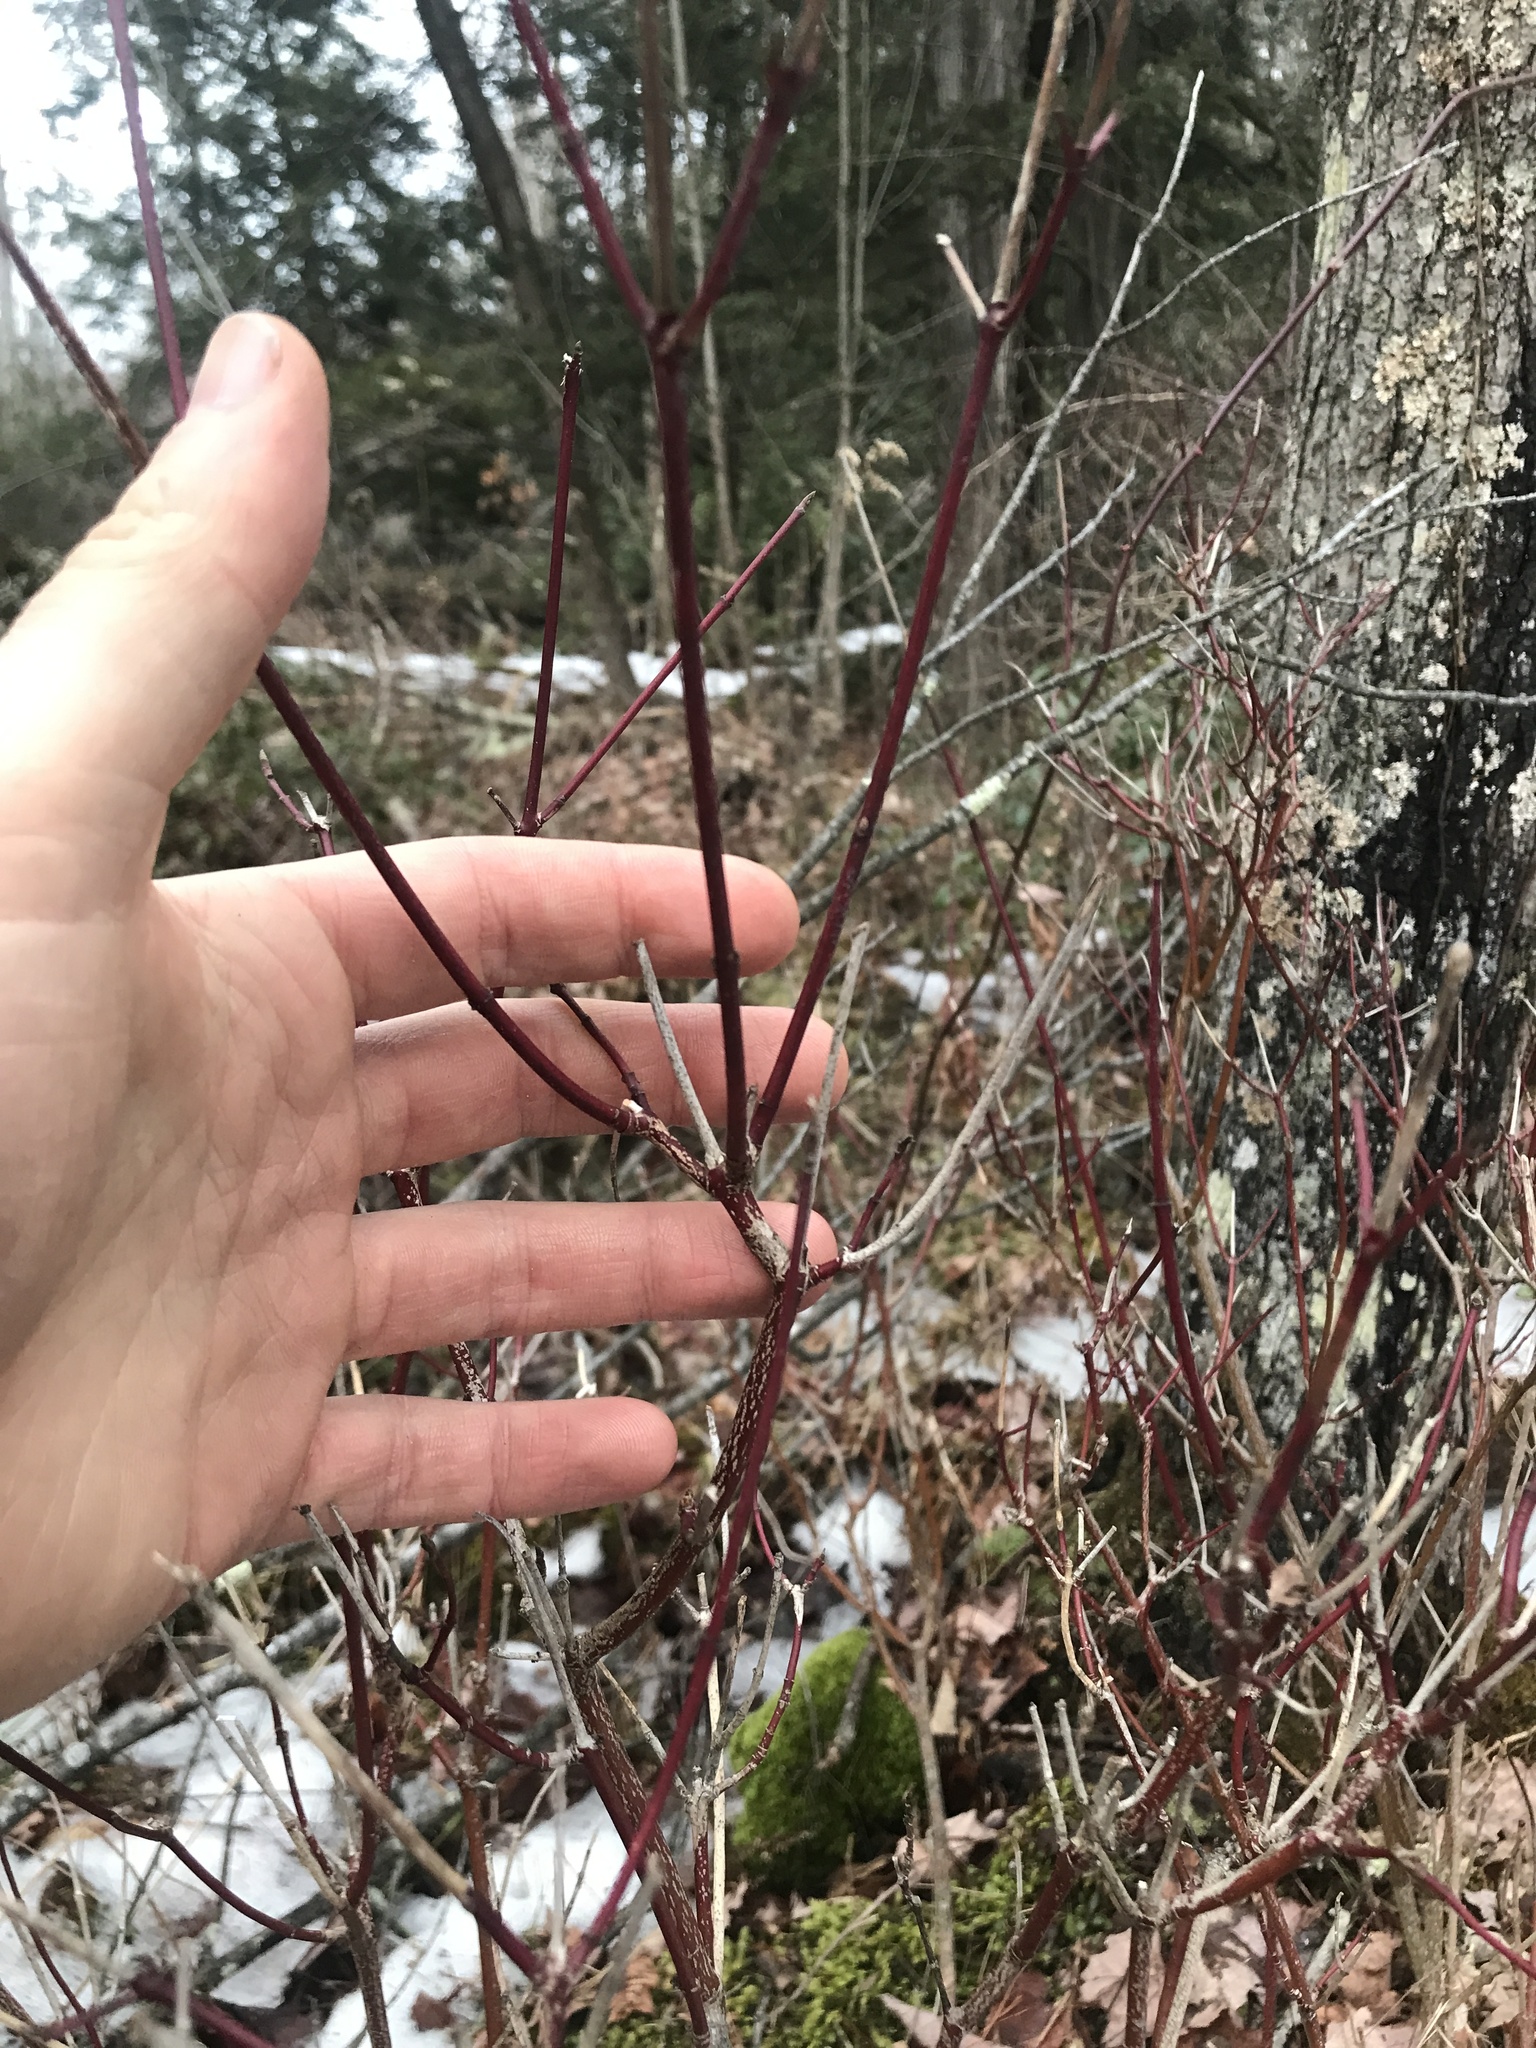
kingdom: Plantae
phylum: Tracheophyta
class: Magnoliopsida
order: Cornales
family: Cornaceae
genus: Cornus
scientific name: Cornus amomum
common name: Silky dogwood
